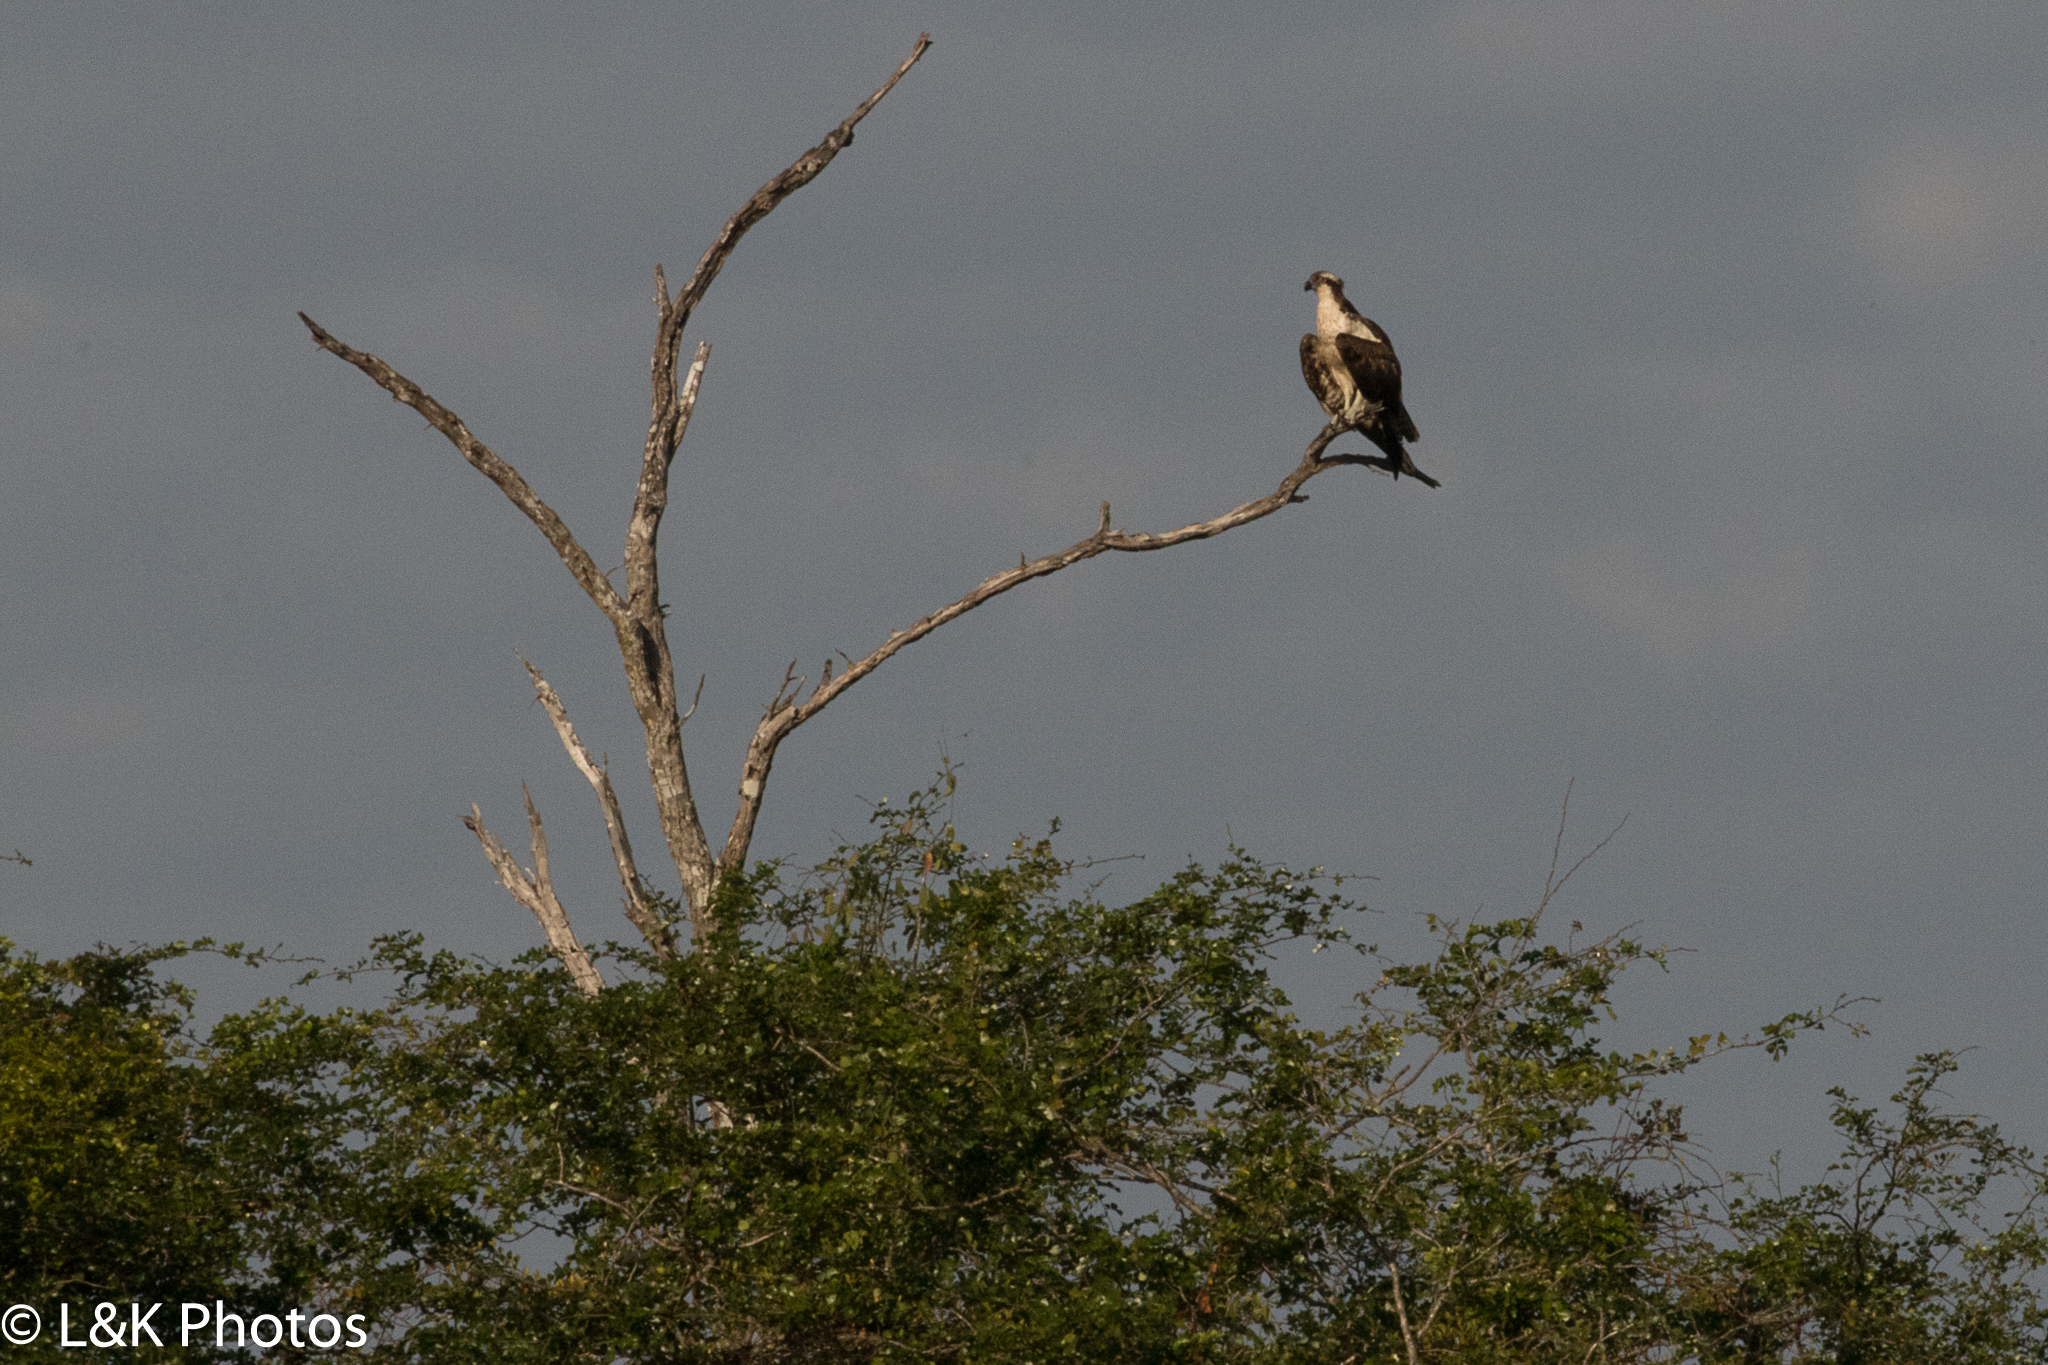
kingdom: Animalia
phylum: Chordata
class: Aves
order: Accipitriformes
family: Pandionidae
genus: Pandion
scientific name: Pandion haliaetus
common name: Osprey
